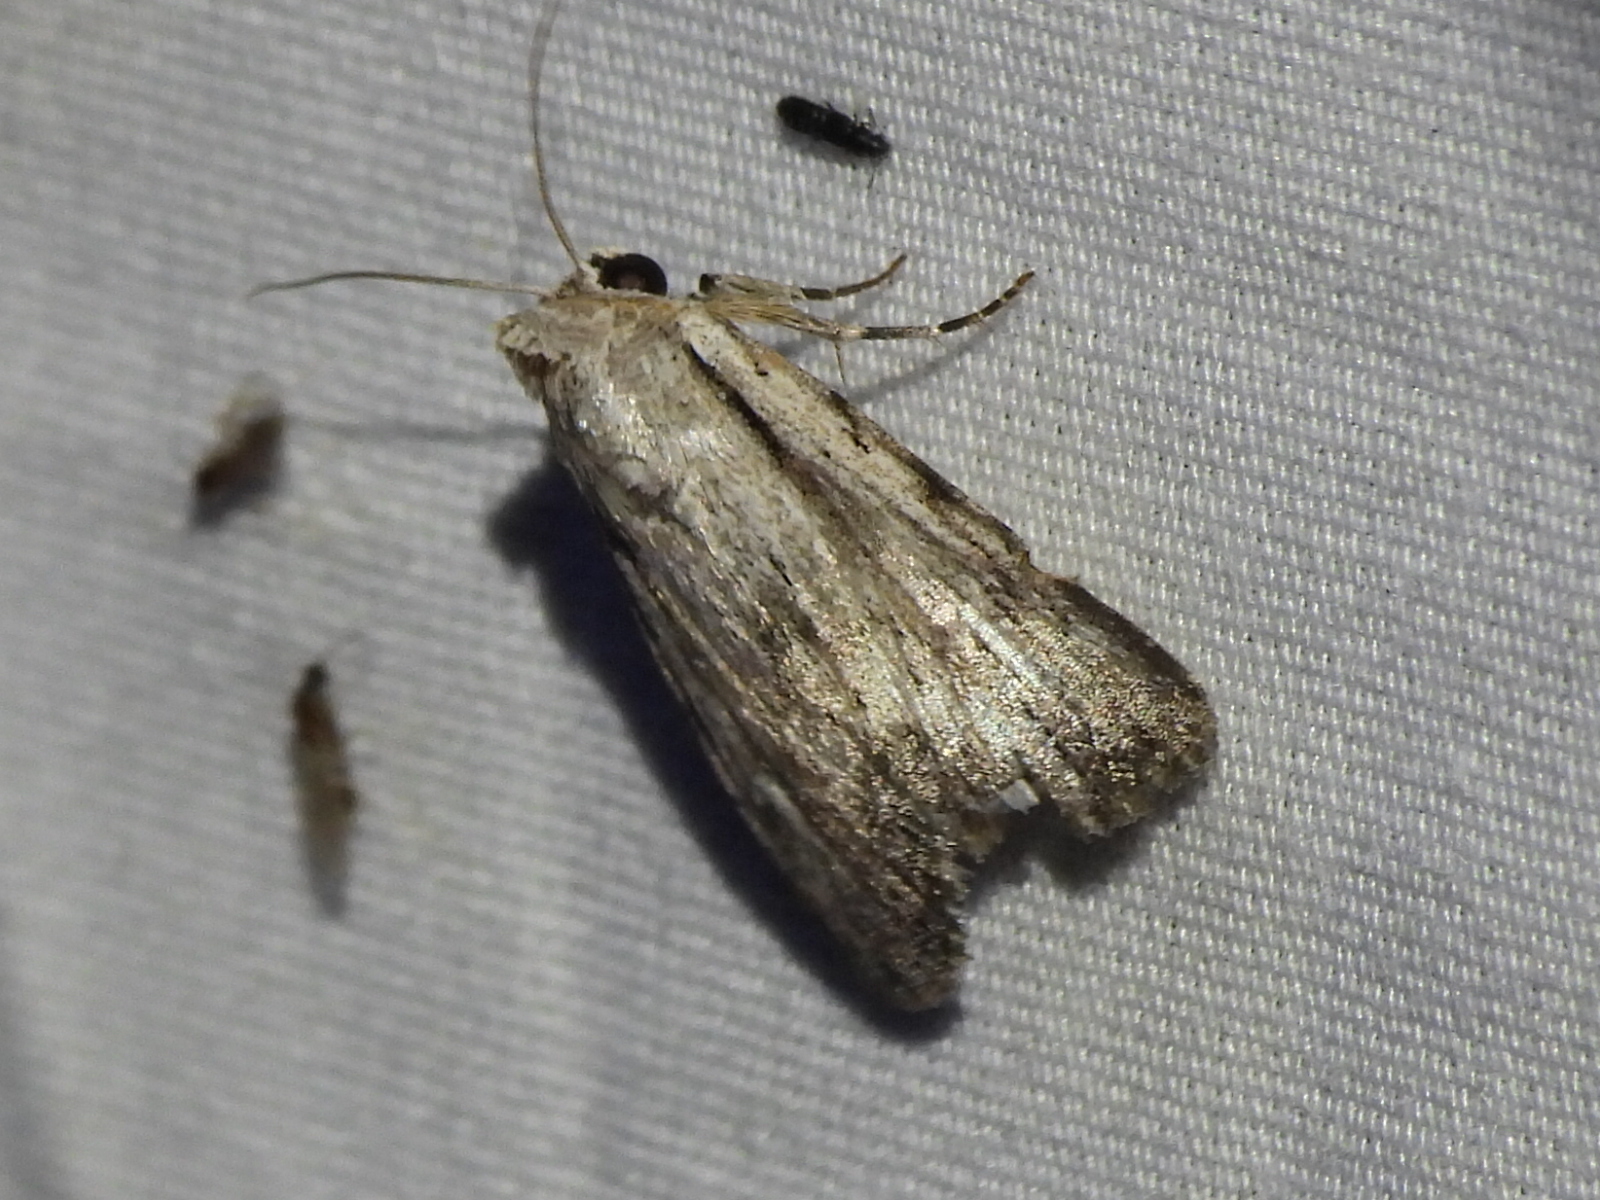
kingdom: Animalia
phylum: Arthropoda
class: Insecta
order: Lepidoptera
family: Noctuidae
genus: Catabenoides
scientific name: Catabenoides terminellus
